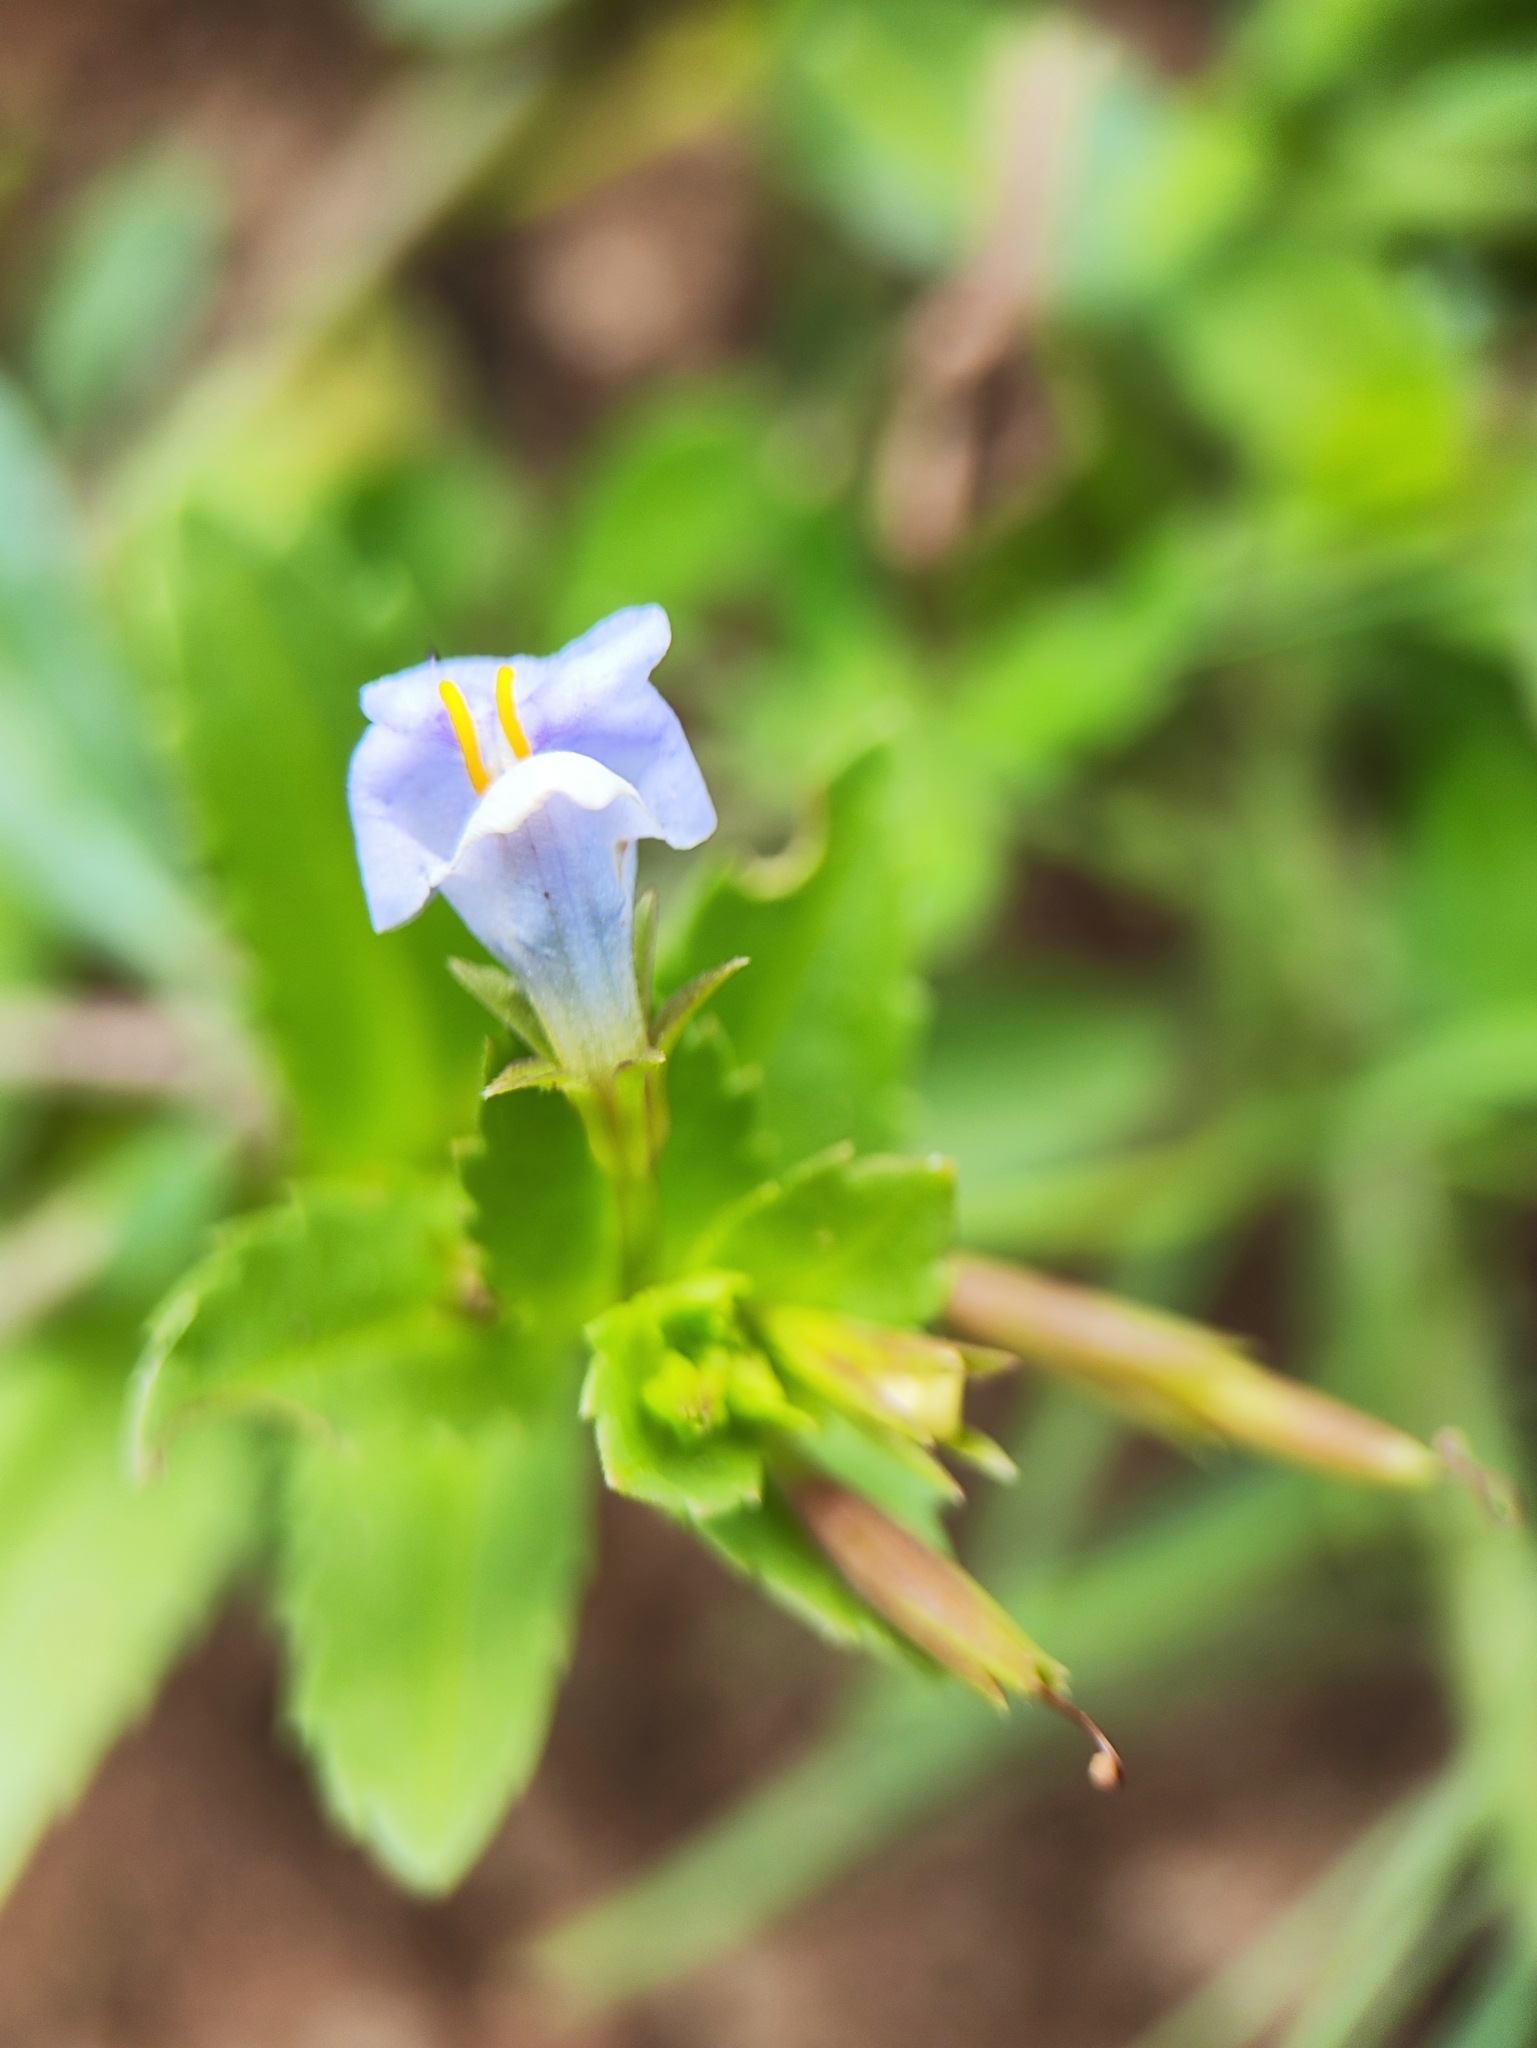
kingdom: Plantae
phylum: Tracheophyta
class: Magnoliopsida
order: Lamiales
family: Linderniaceae
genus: Bonnaya
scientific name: Bonnaya antipoda
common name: Sparrow false pimpernel
